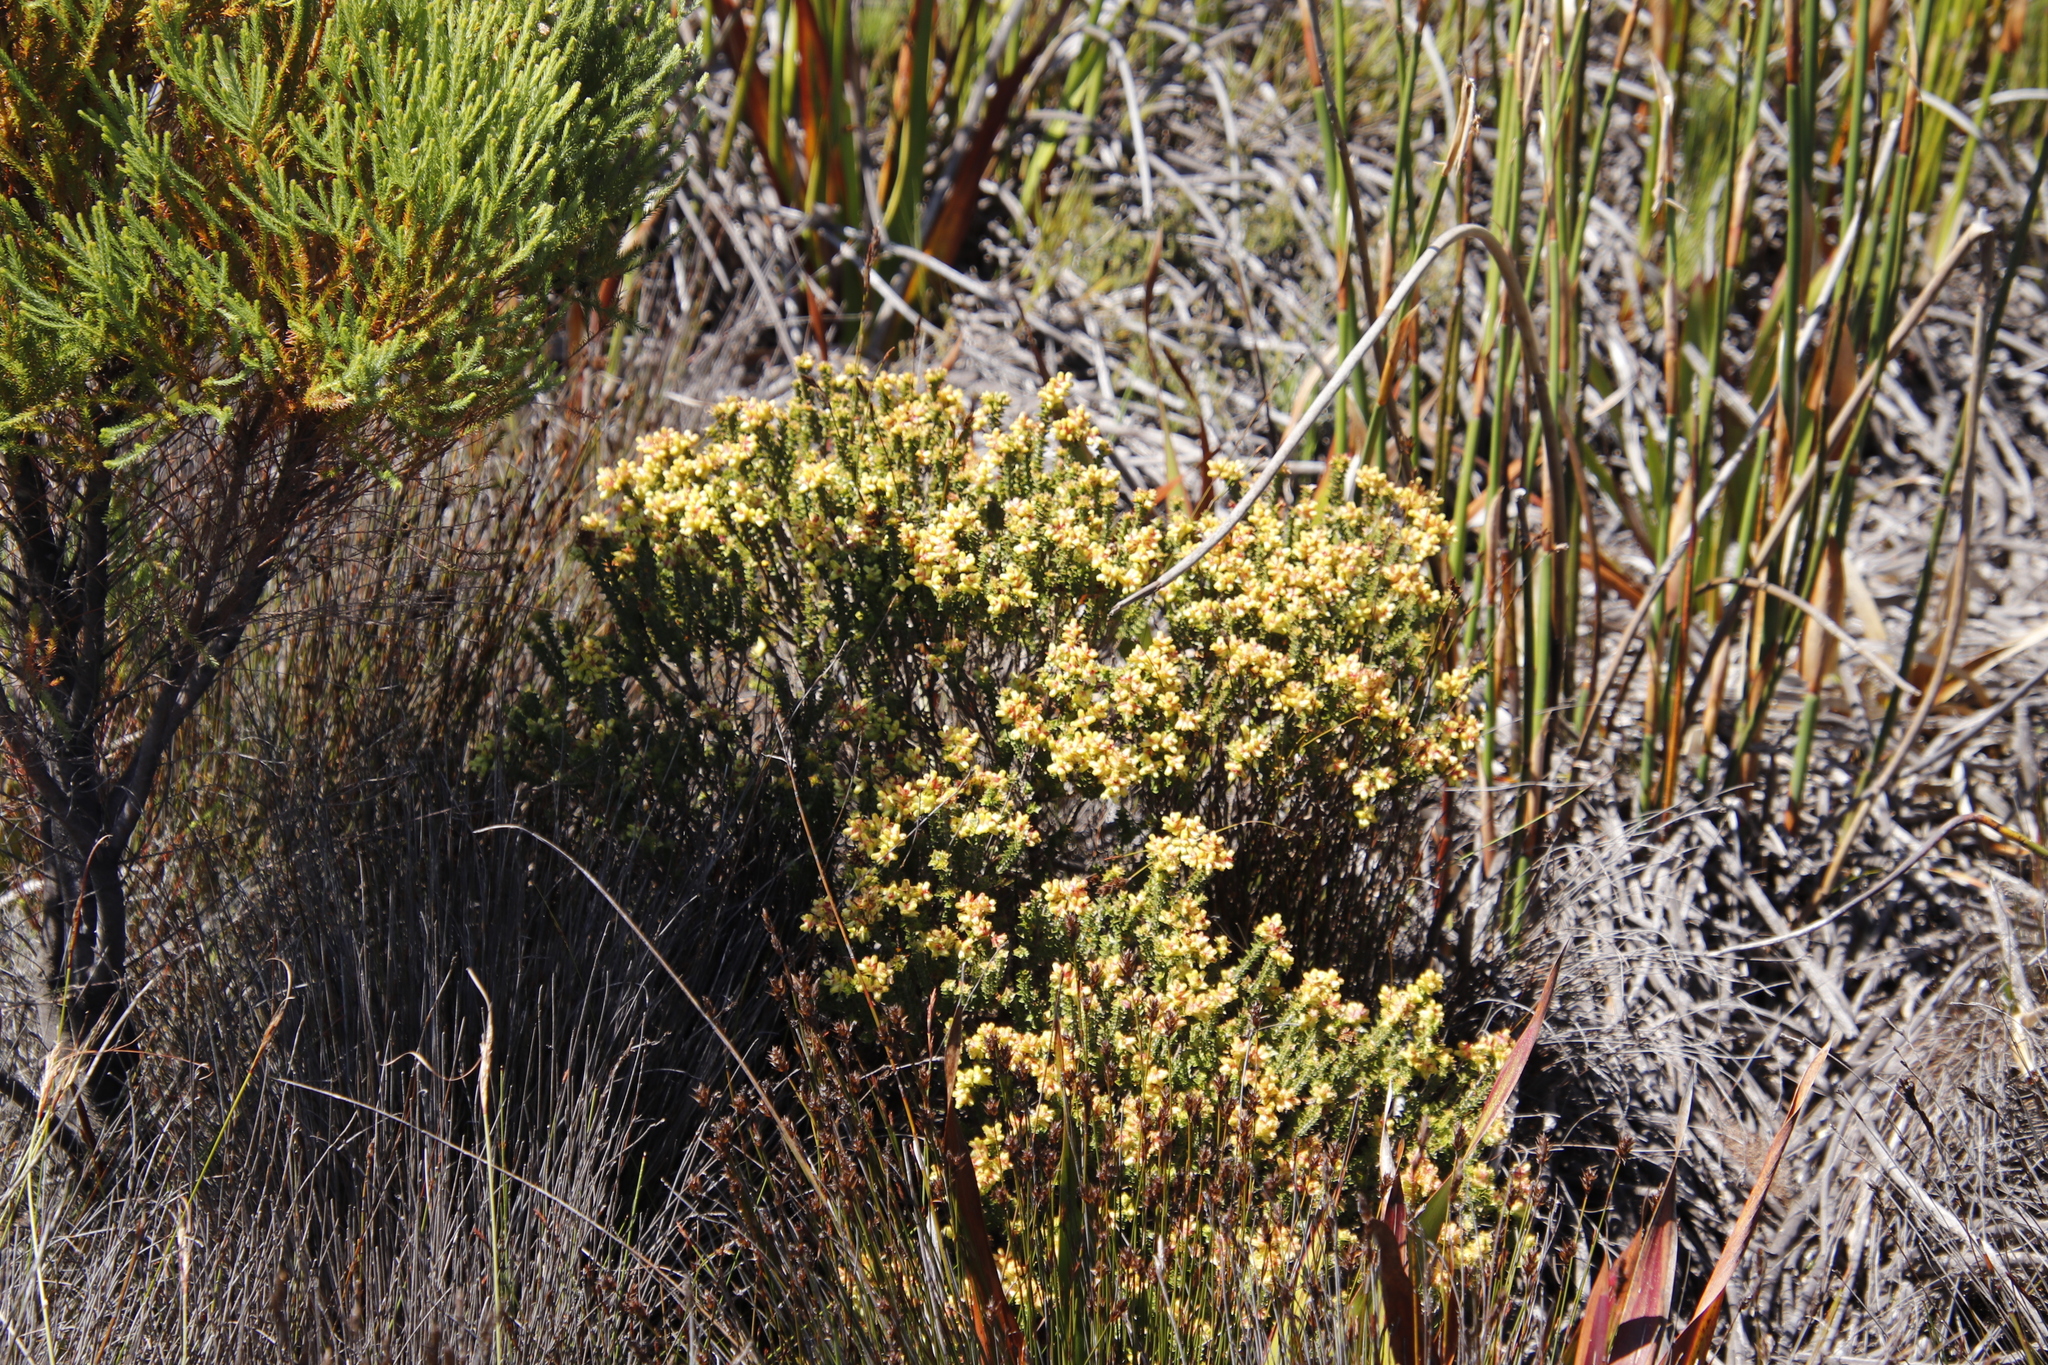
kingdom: Plantae
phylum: Tracheophyta
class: Magnoliopsida
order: Myrtales
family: Penaeaceae
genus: Penaea
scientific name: Penaea mucronata
